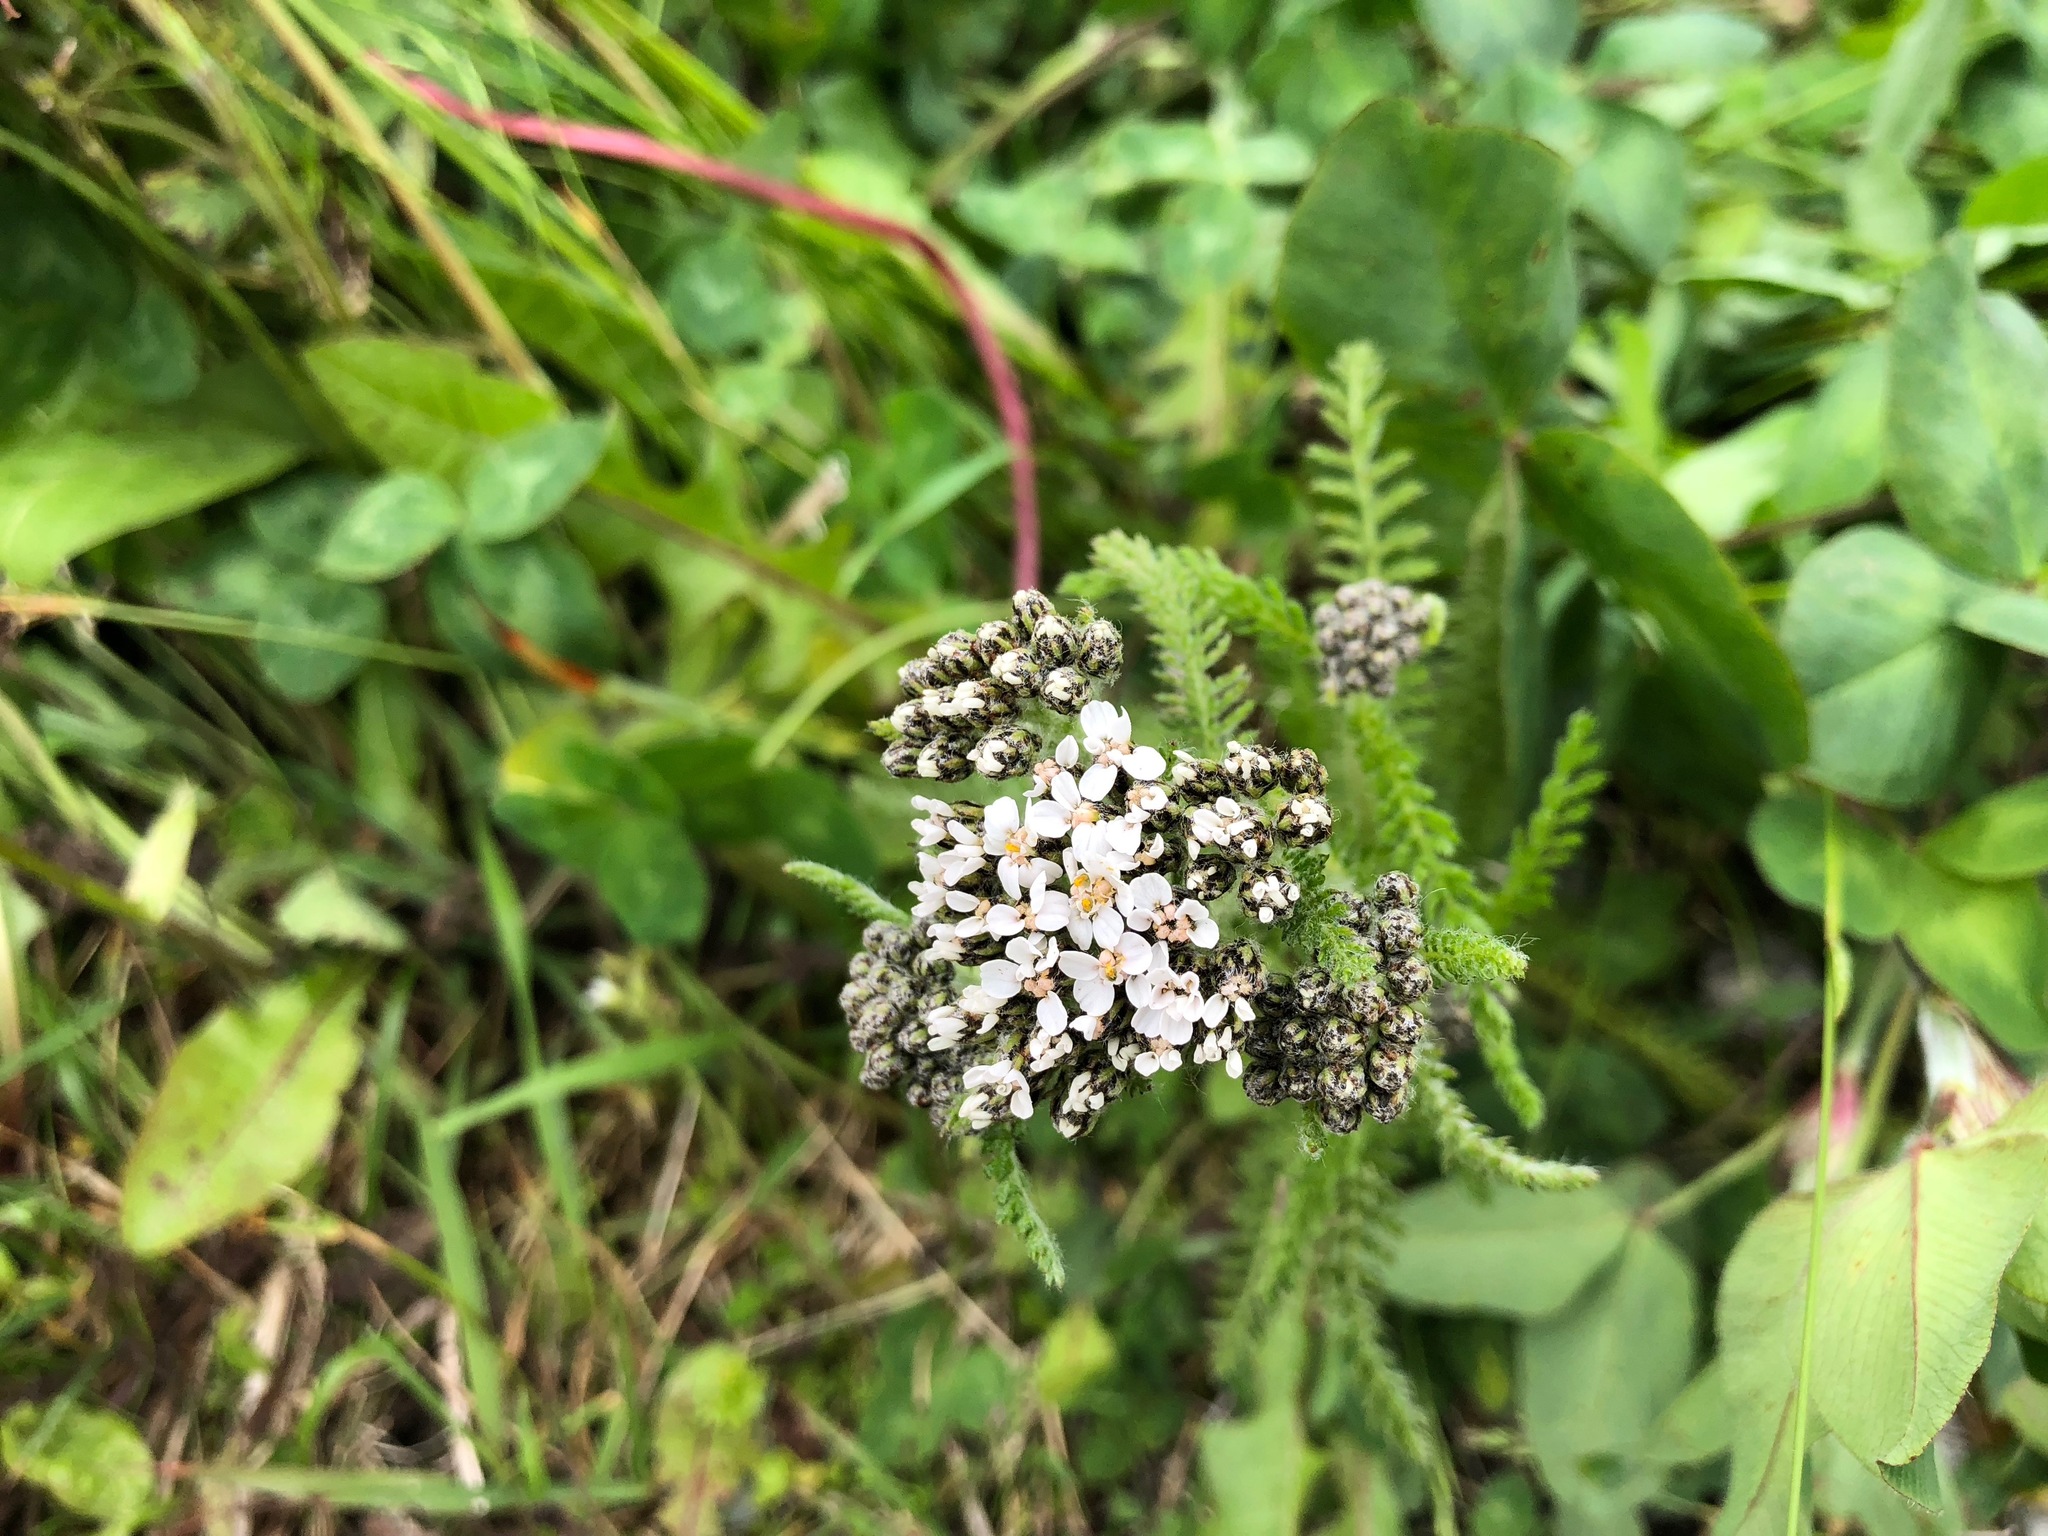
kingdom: Plantae
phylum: Tracheophyta
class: Magnoliopsida
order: Asterales
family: Asteraceae
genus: Achillea
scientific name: Achillea millefolium
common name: Yarrow
